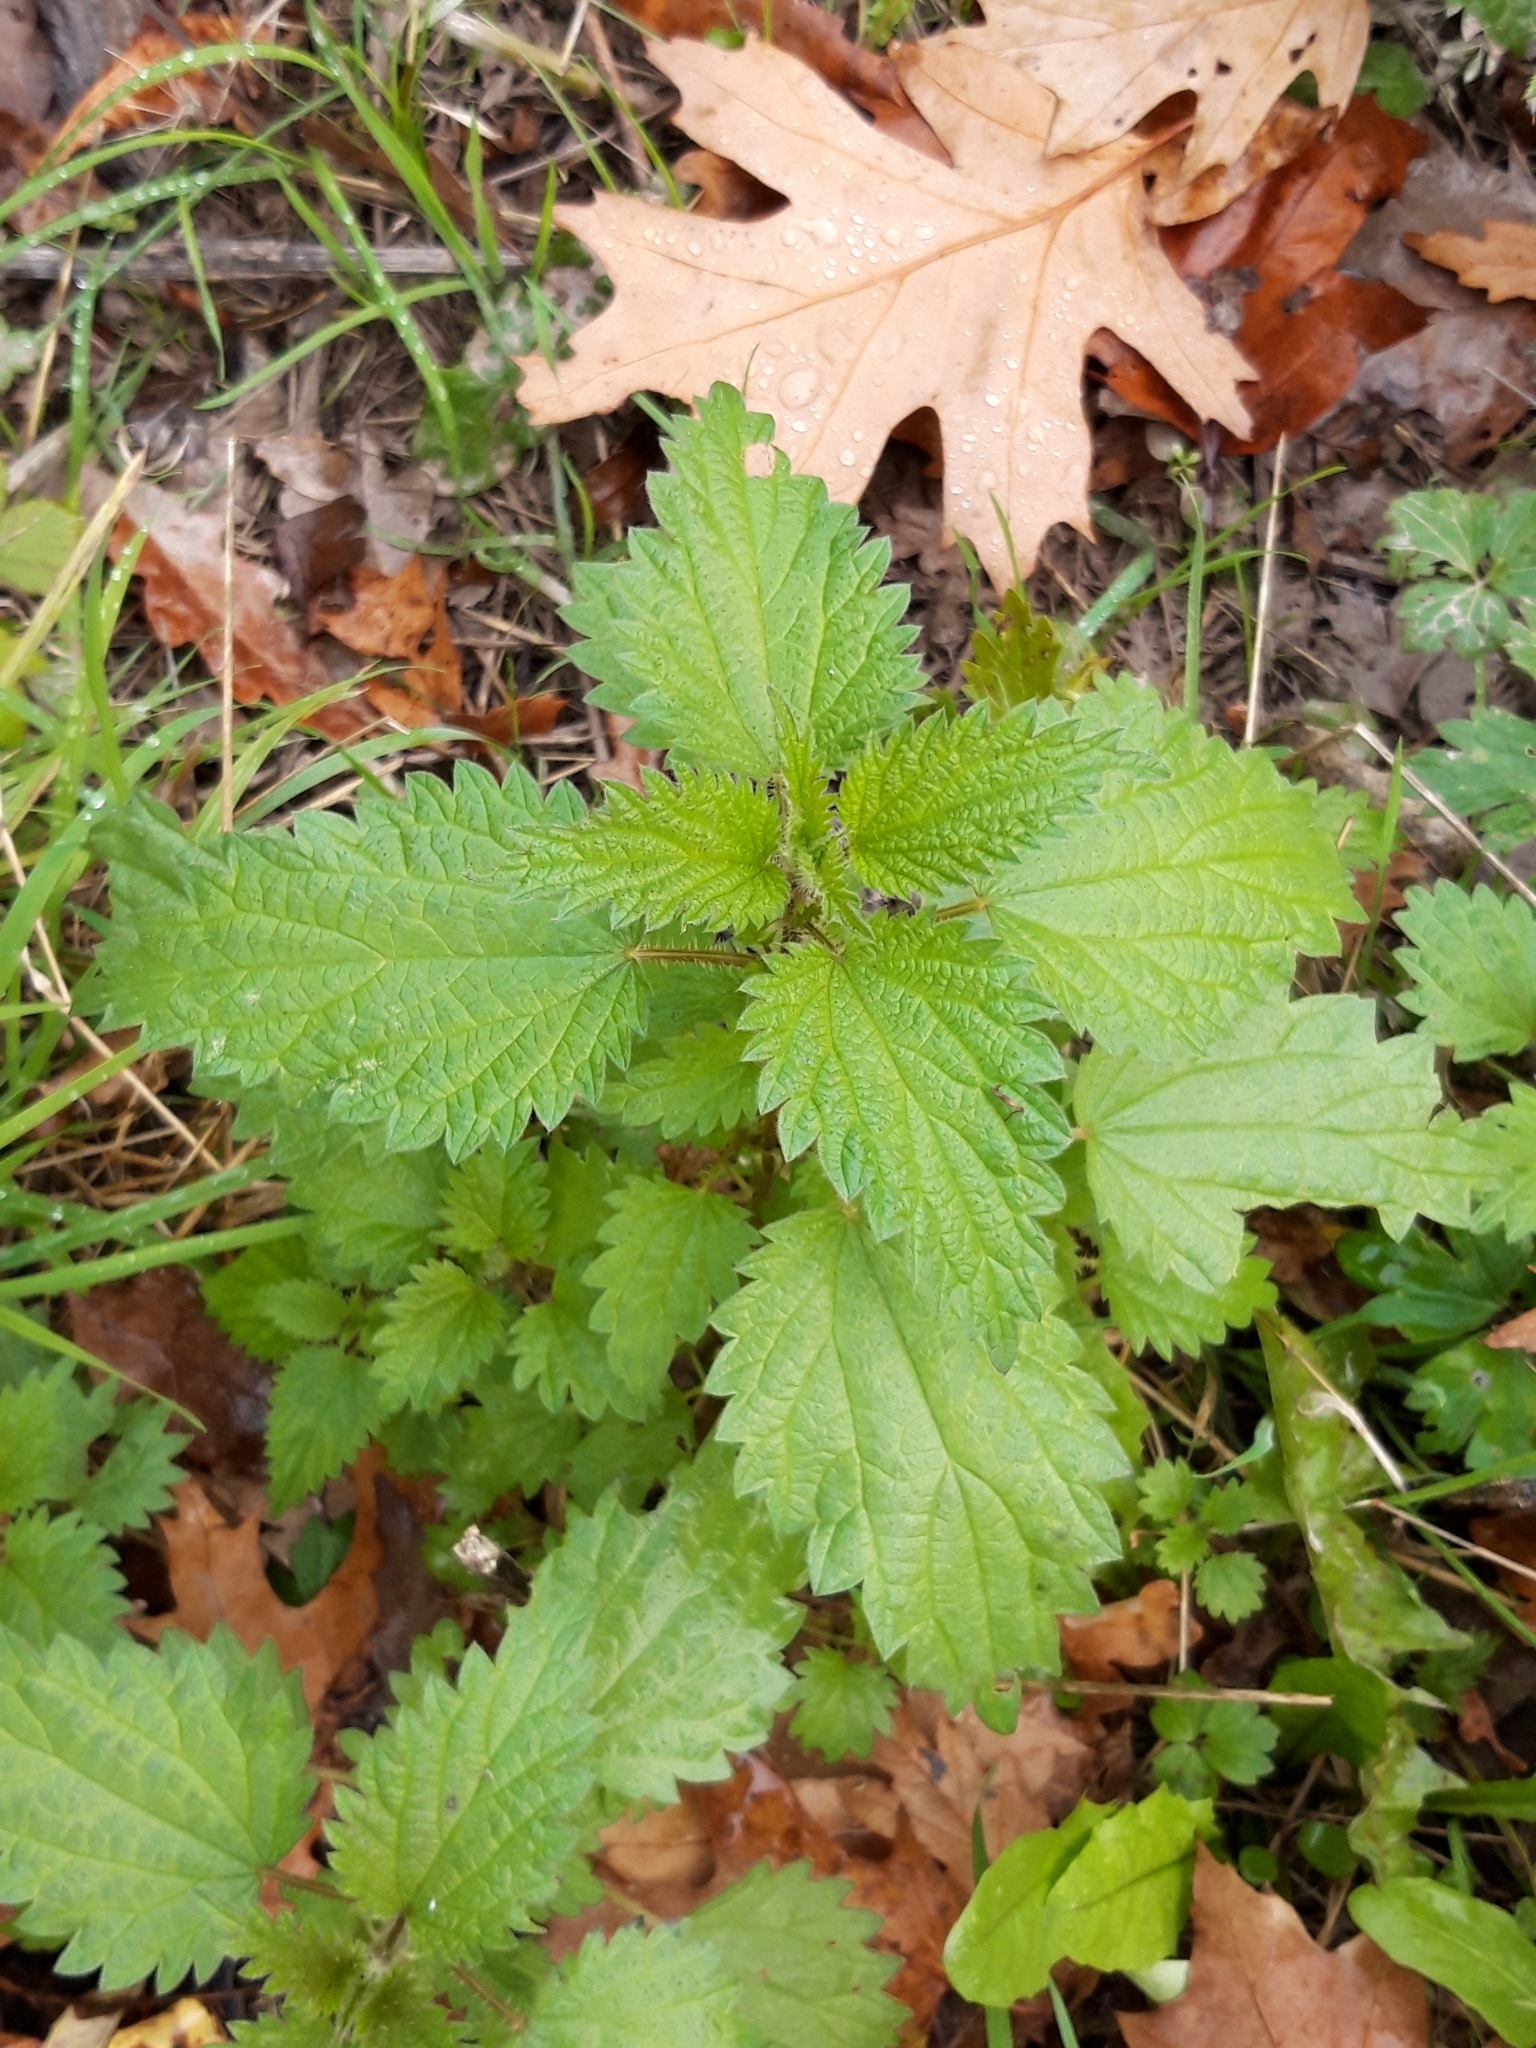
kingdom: Plantae
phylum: Tracheophyta
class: Magnoliopsida
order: Rosales
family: Urticaceae
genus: Urtica
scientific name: Urtica dioica
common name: Common nettle
